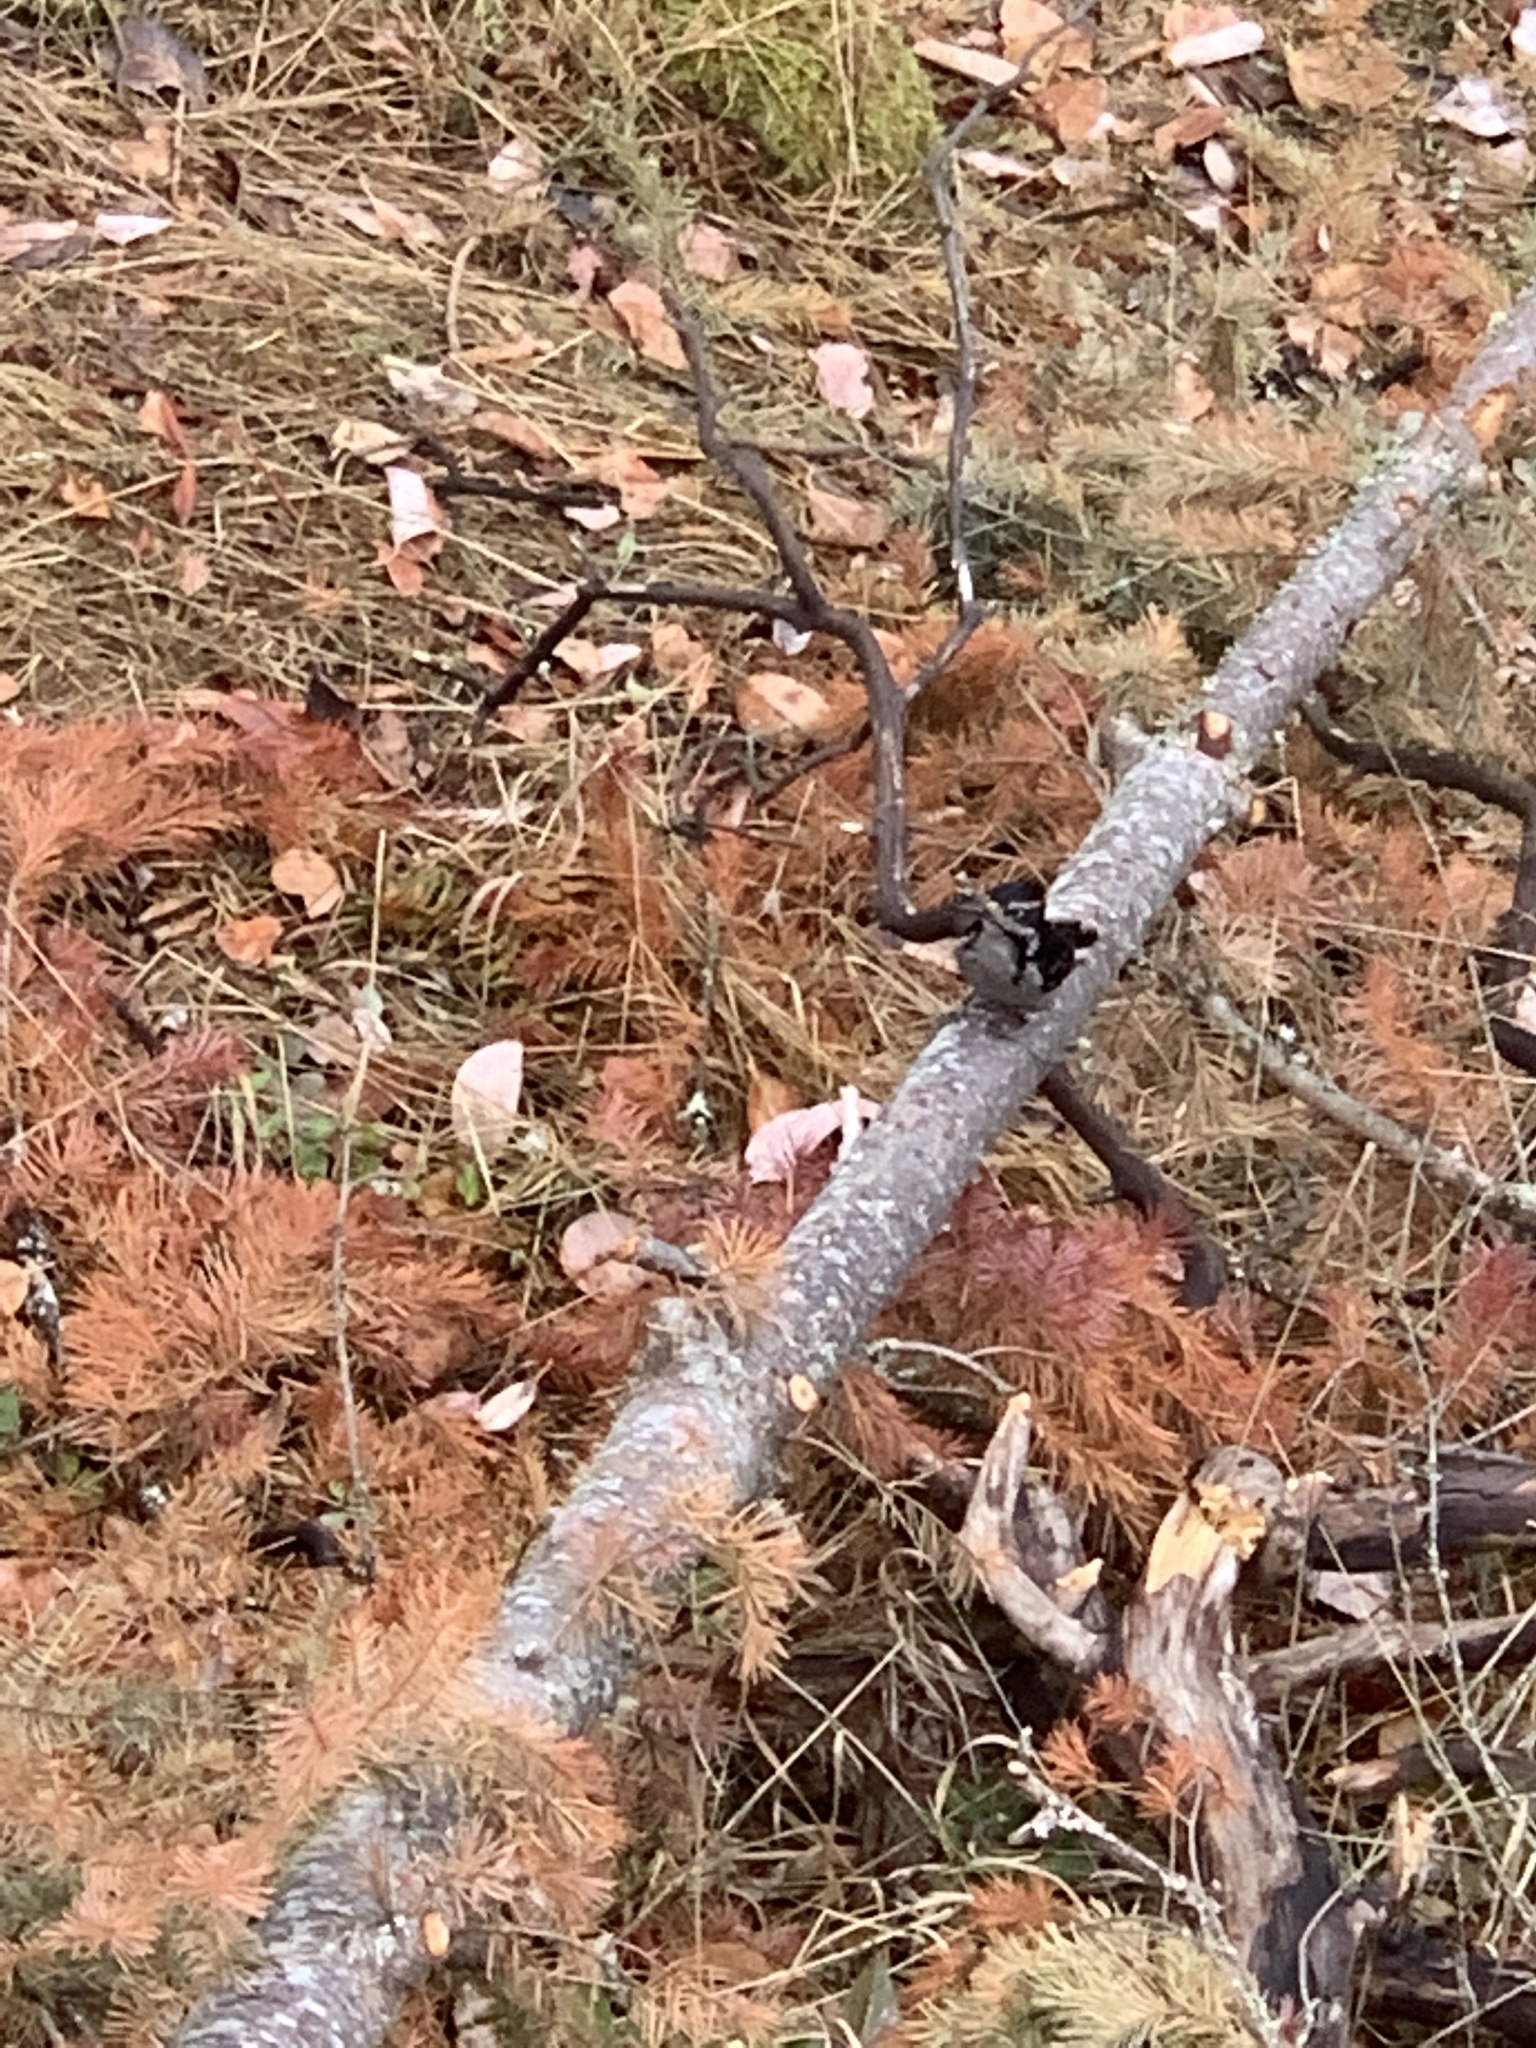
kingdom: Animalia
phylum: Chordata
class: Aves
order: Piciformes
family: Picidae
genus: Leuconotopicus
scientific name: Leuconotopicus villosus
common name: Hairy woodpecker
